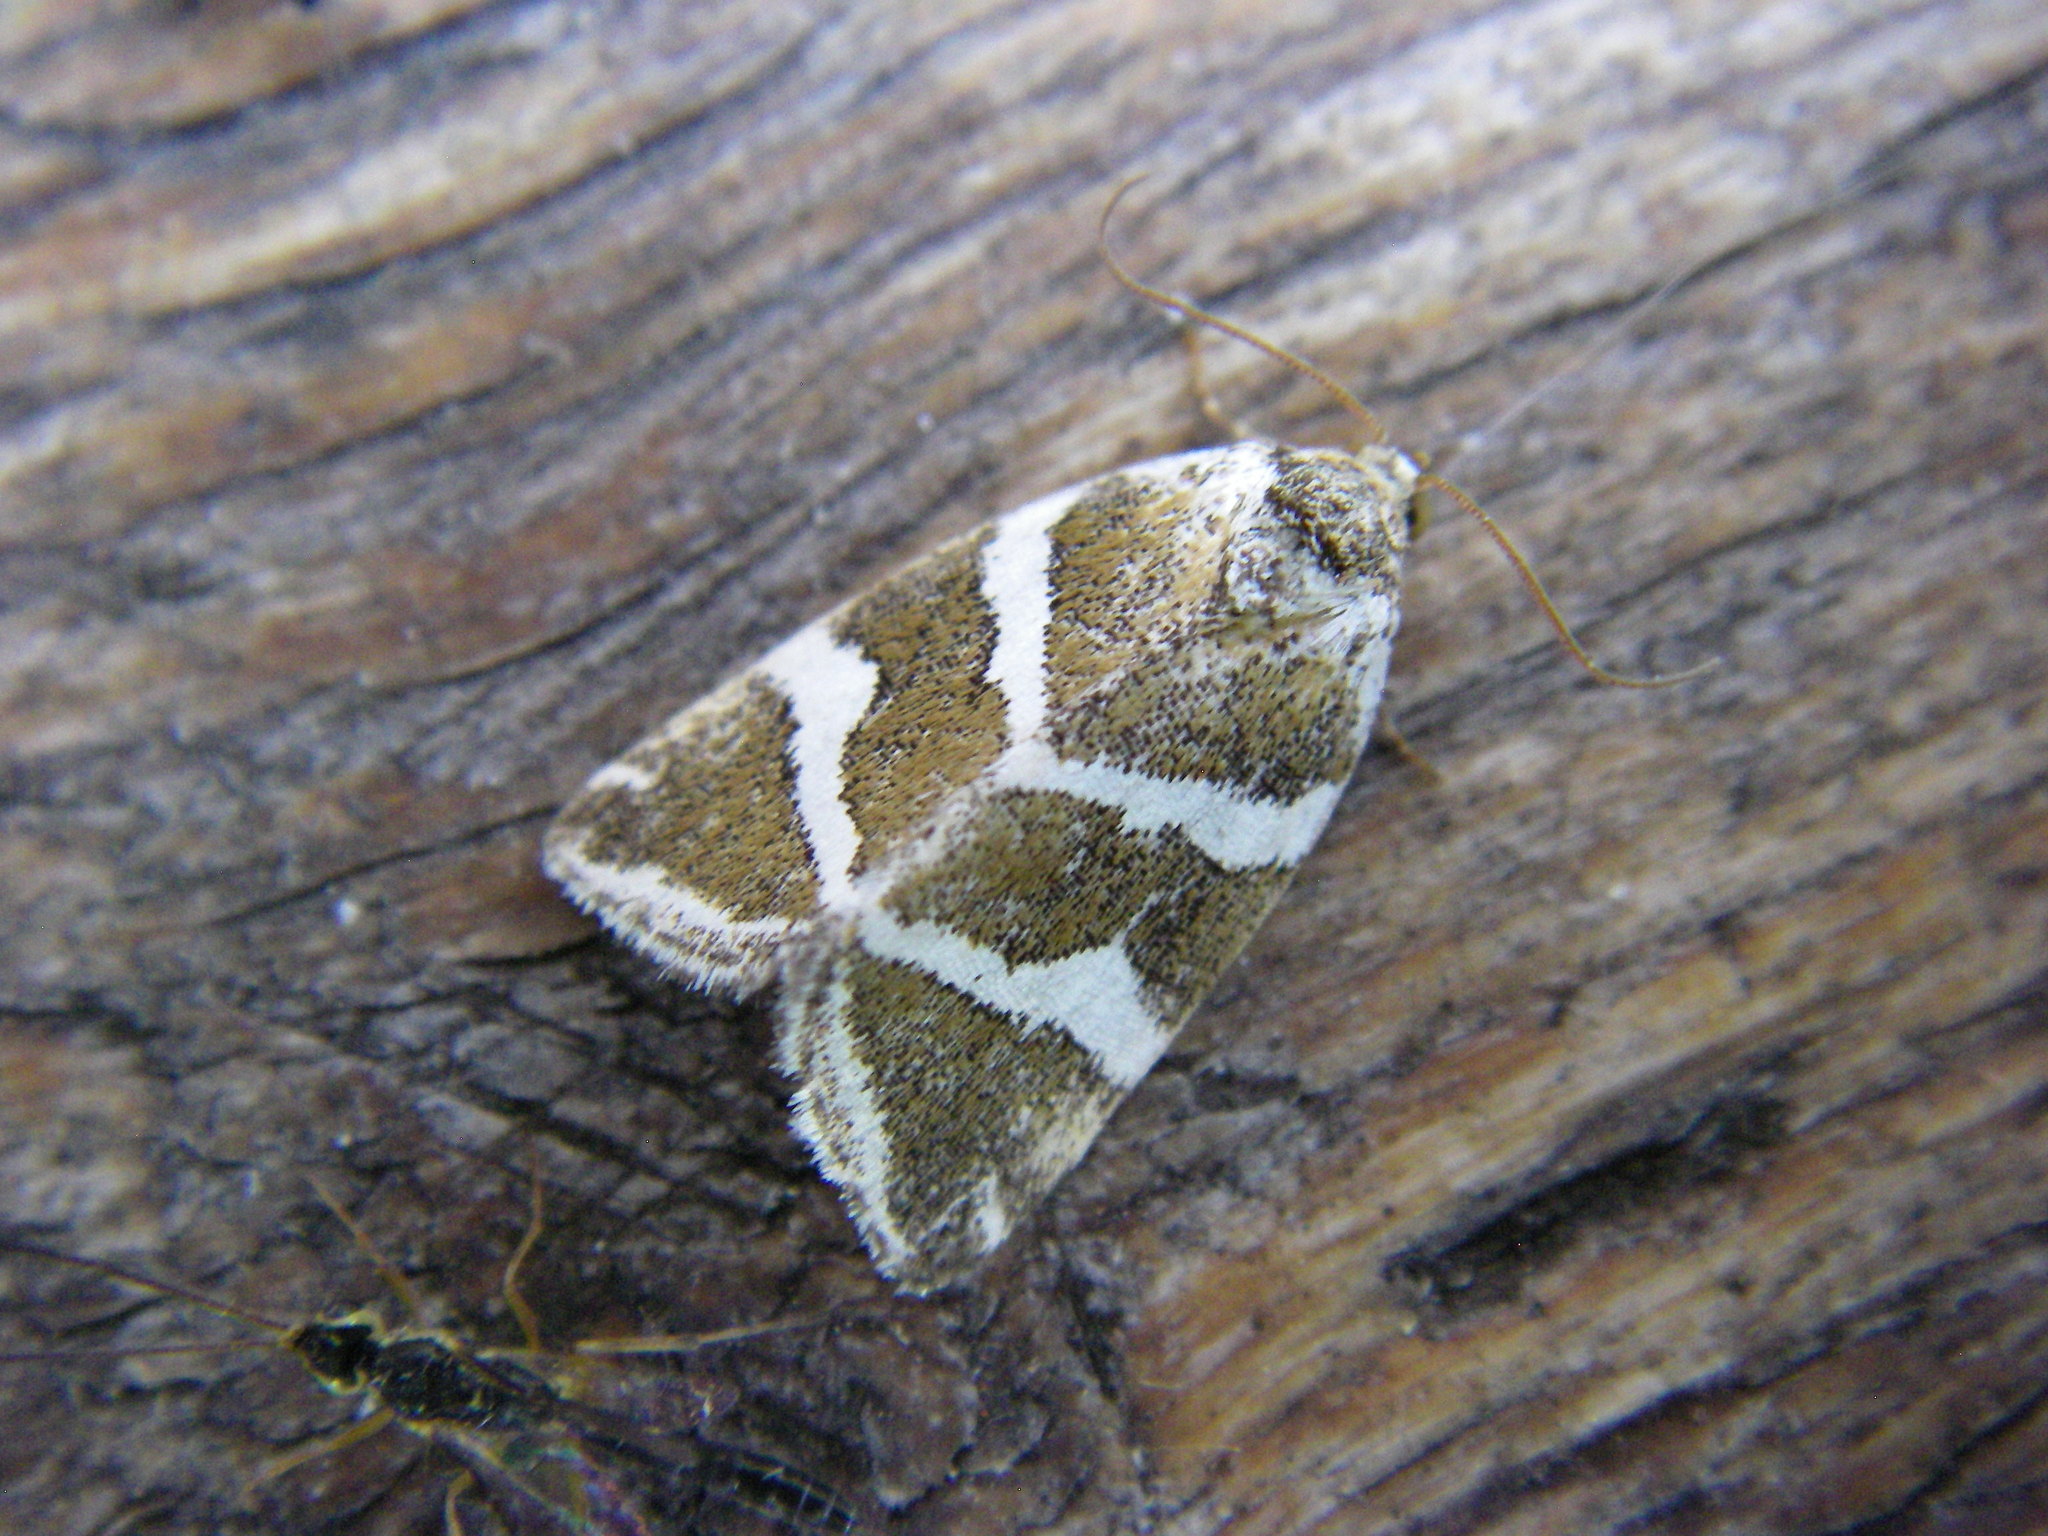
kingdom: Animalia
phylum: Arthropoda
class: Insecta
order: Lepidoptera
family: Noctuidae
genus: Deltote
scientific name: Deltote bankiana
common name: Silver barred
